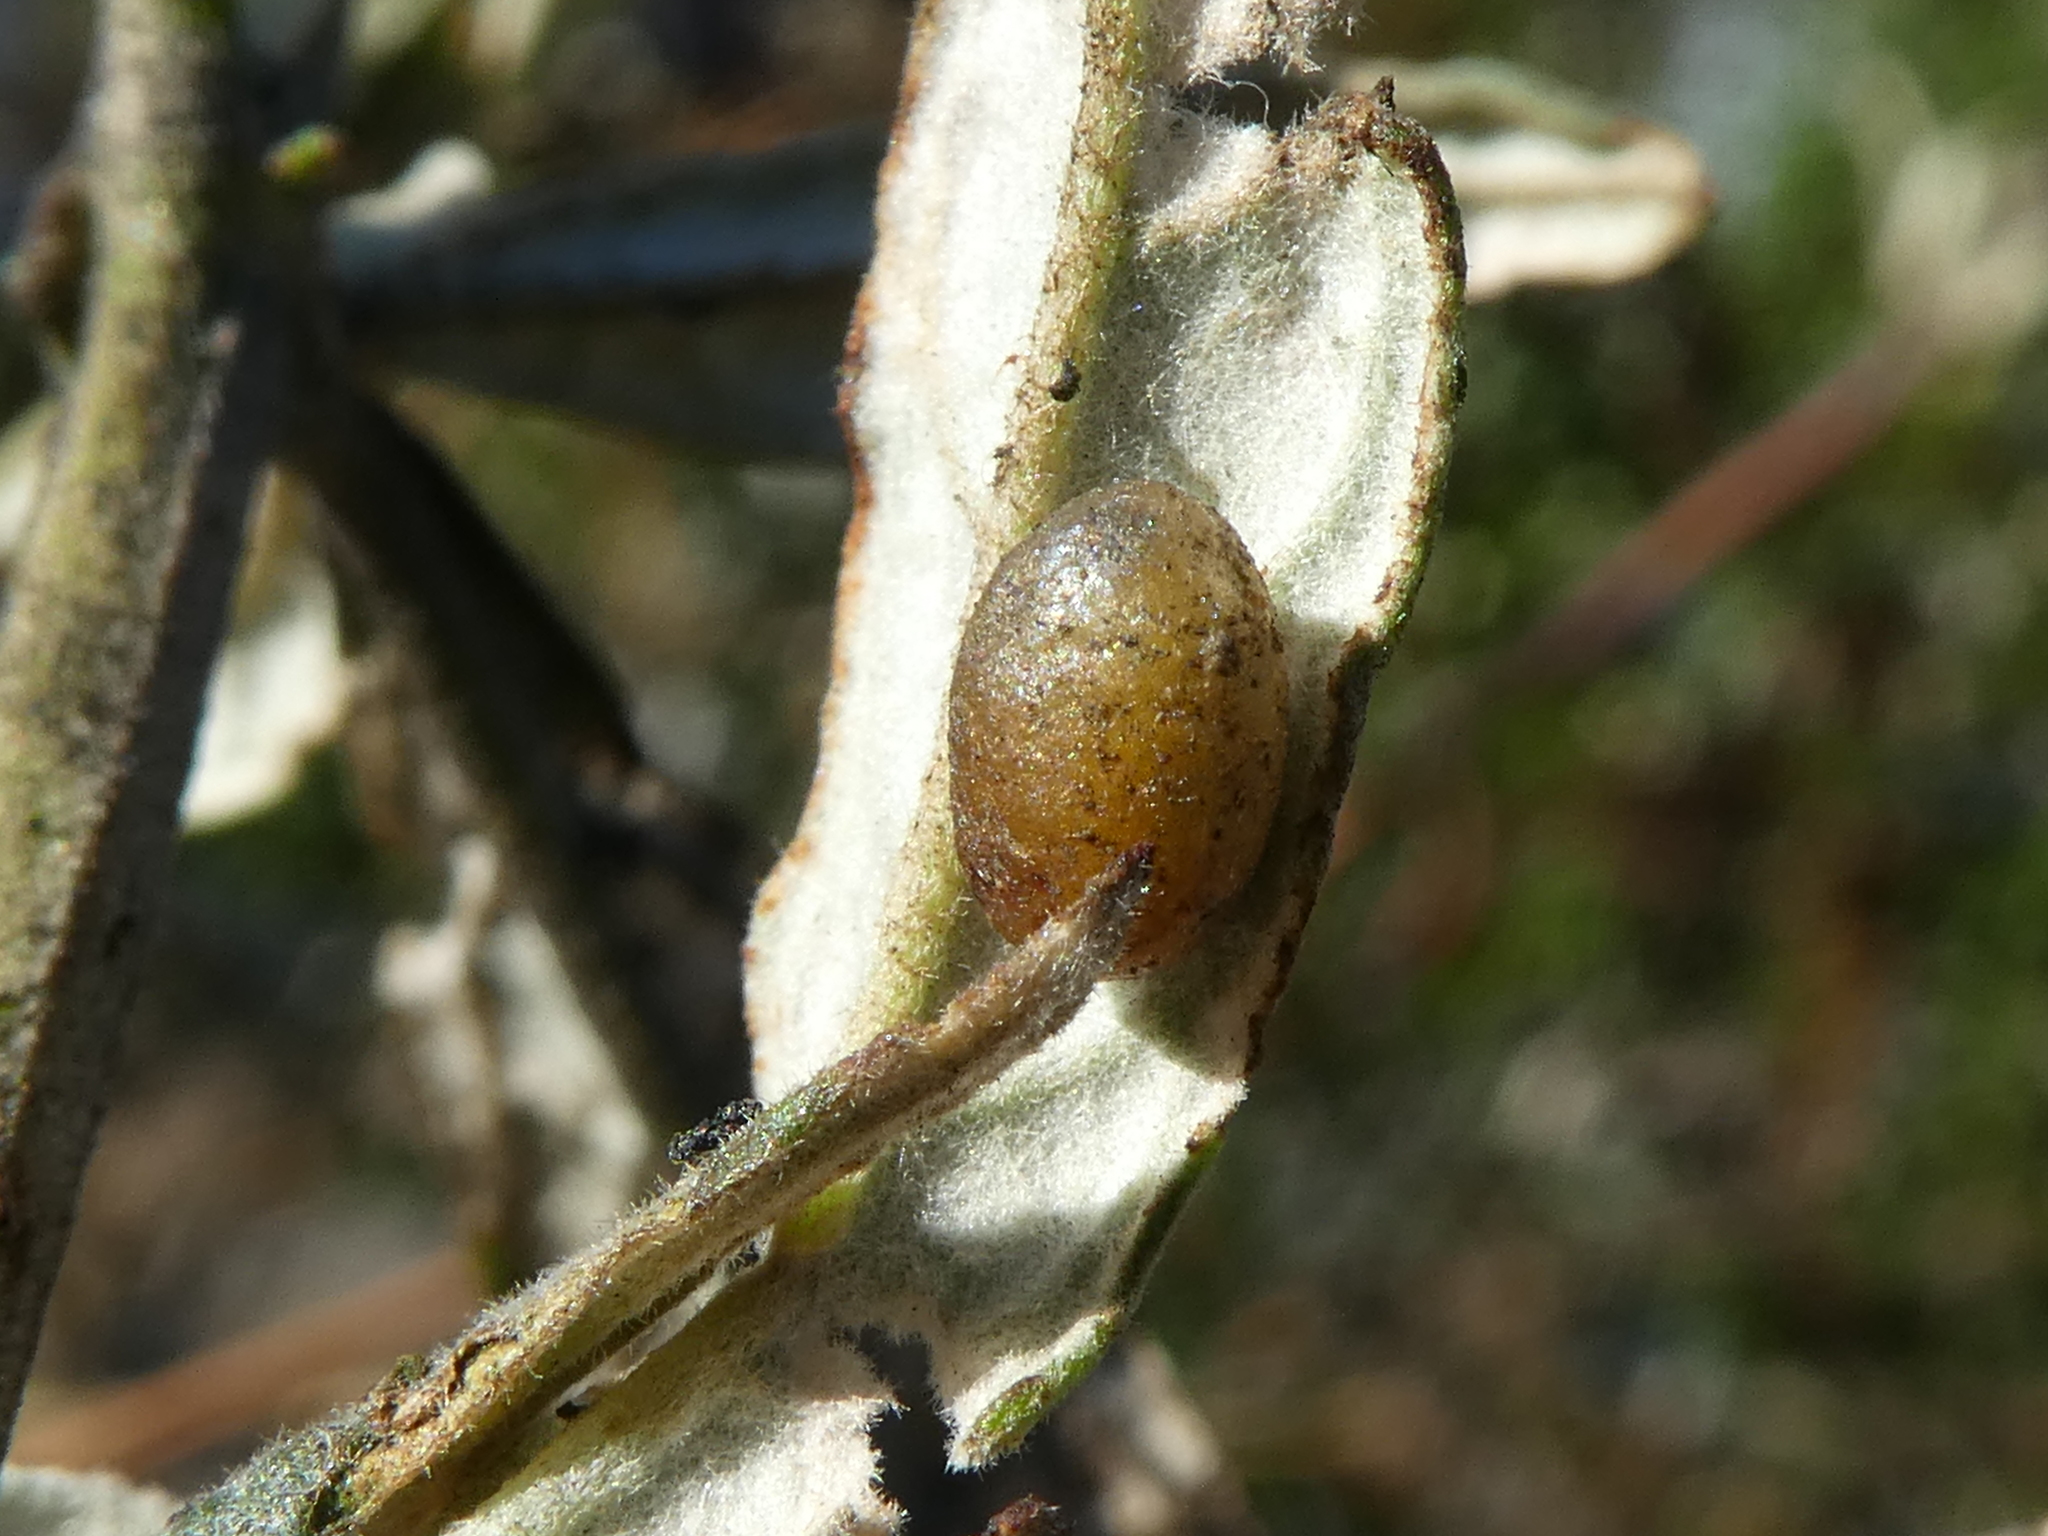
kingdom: Animalia
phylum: Arthropoda
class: Insecta
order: Coleoptera
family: Curculionidae
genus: Cleopus
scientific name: Cleopus japonicus
